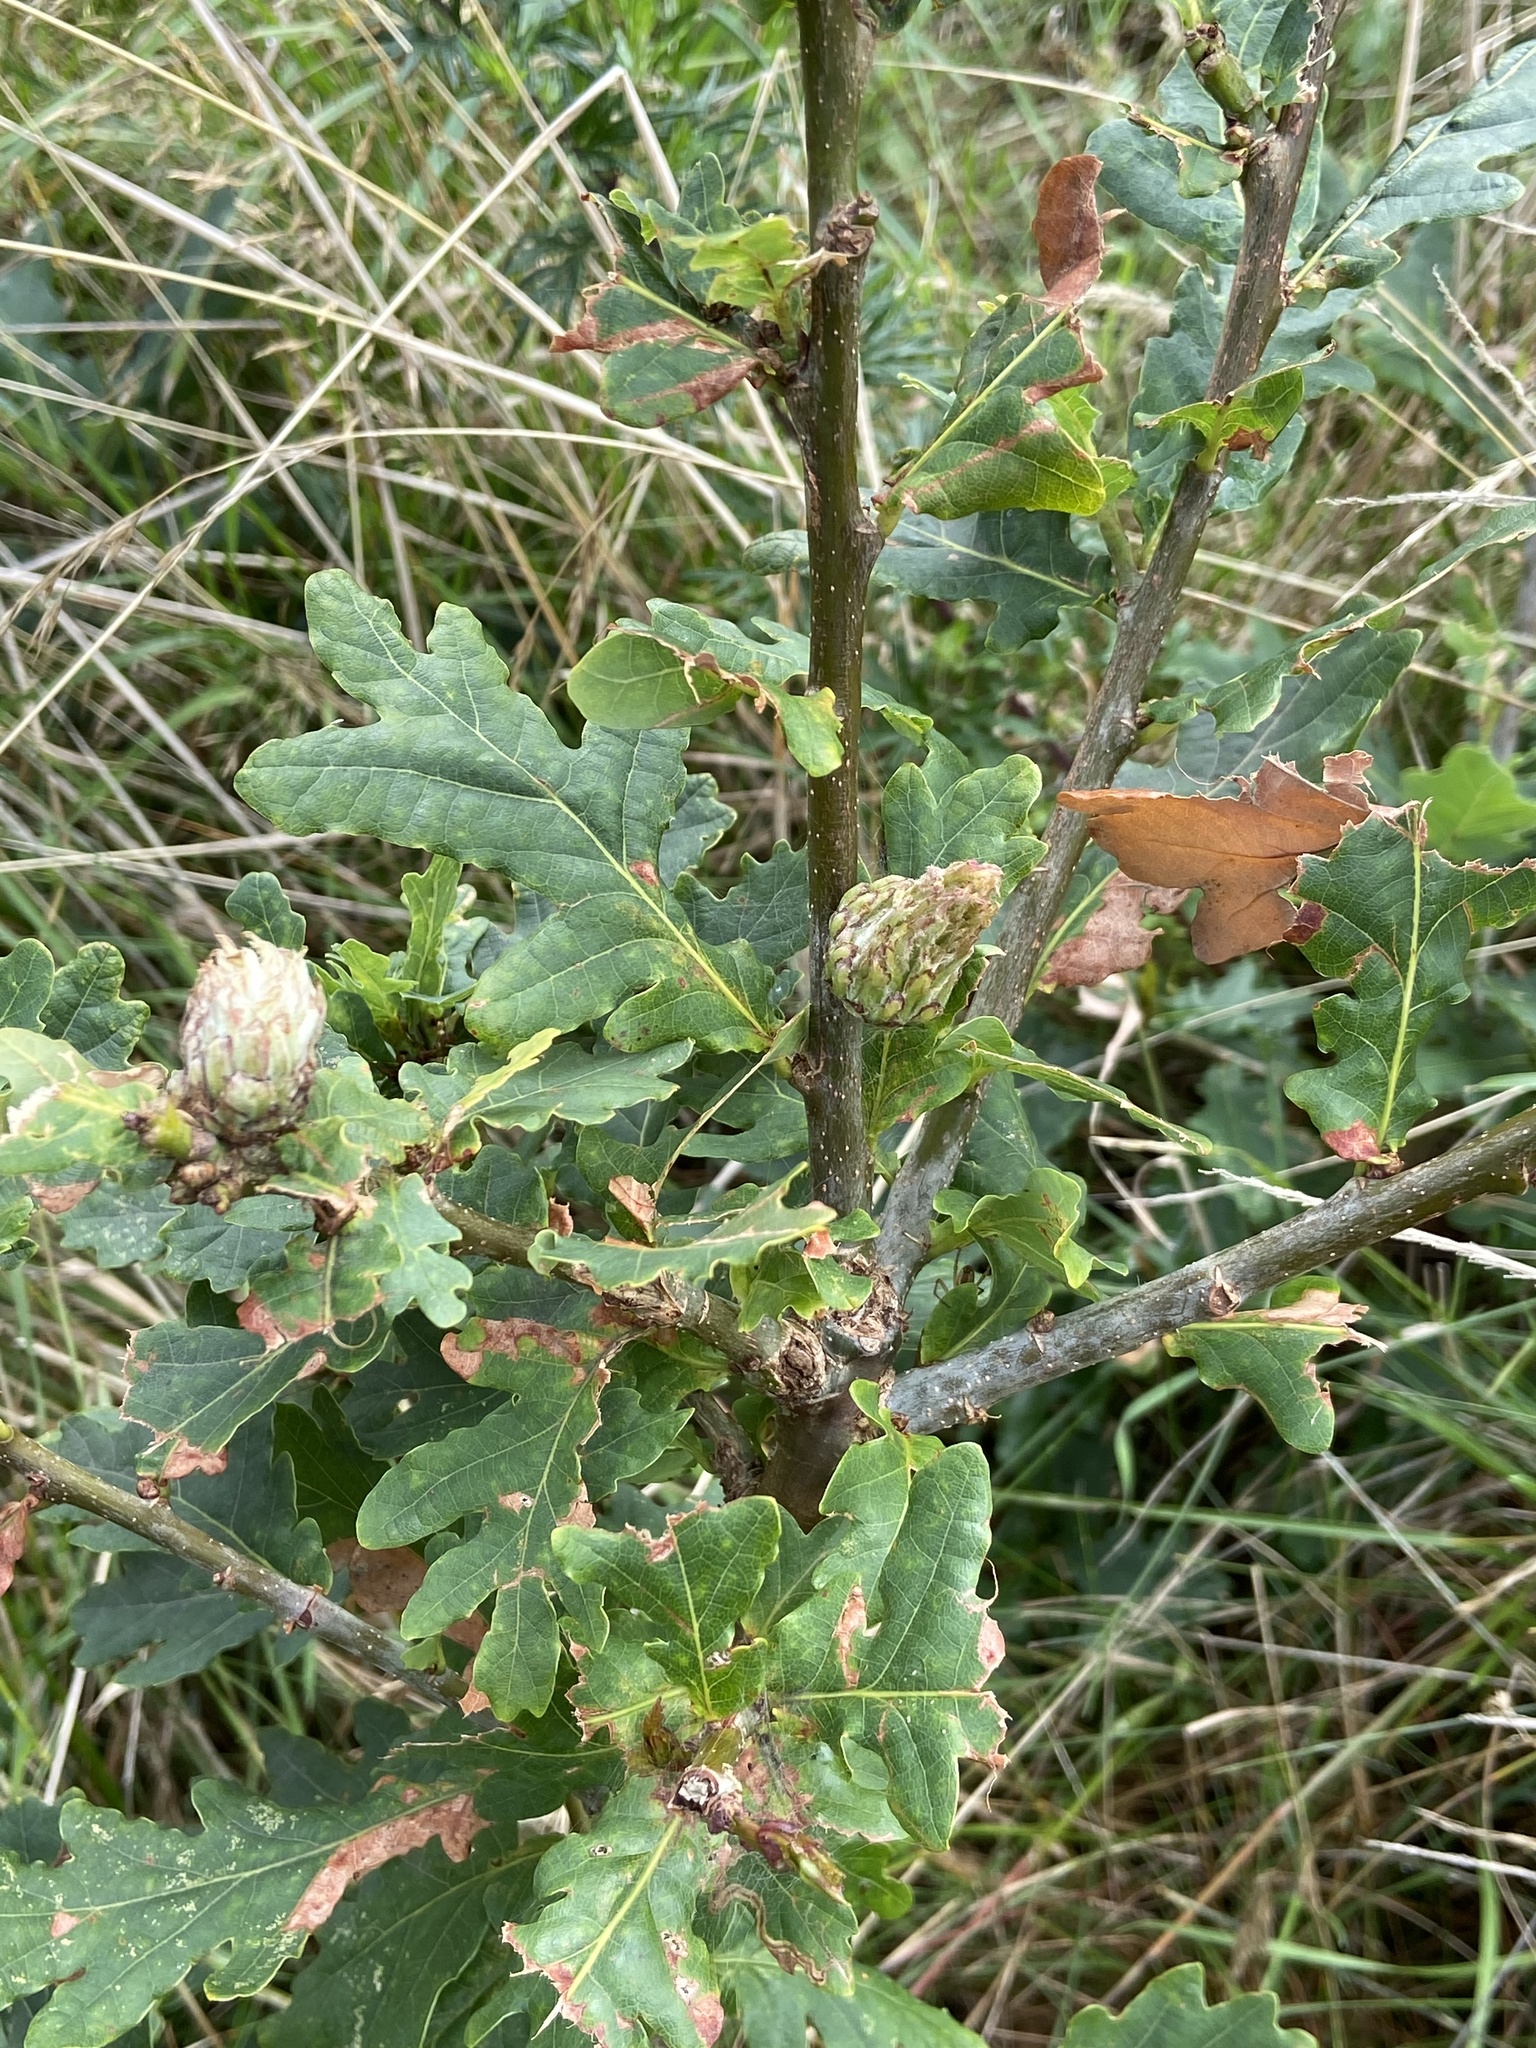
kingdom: Animalia
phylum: Arthropoda
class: Insecta
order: Hymenoptera
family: Cynipidae
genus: Andricus
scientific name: Andricus foecundatrix
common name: Artichoke gall
